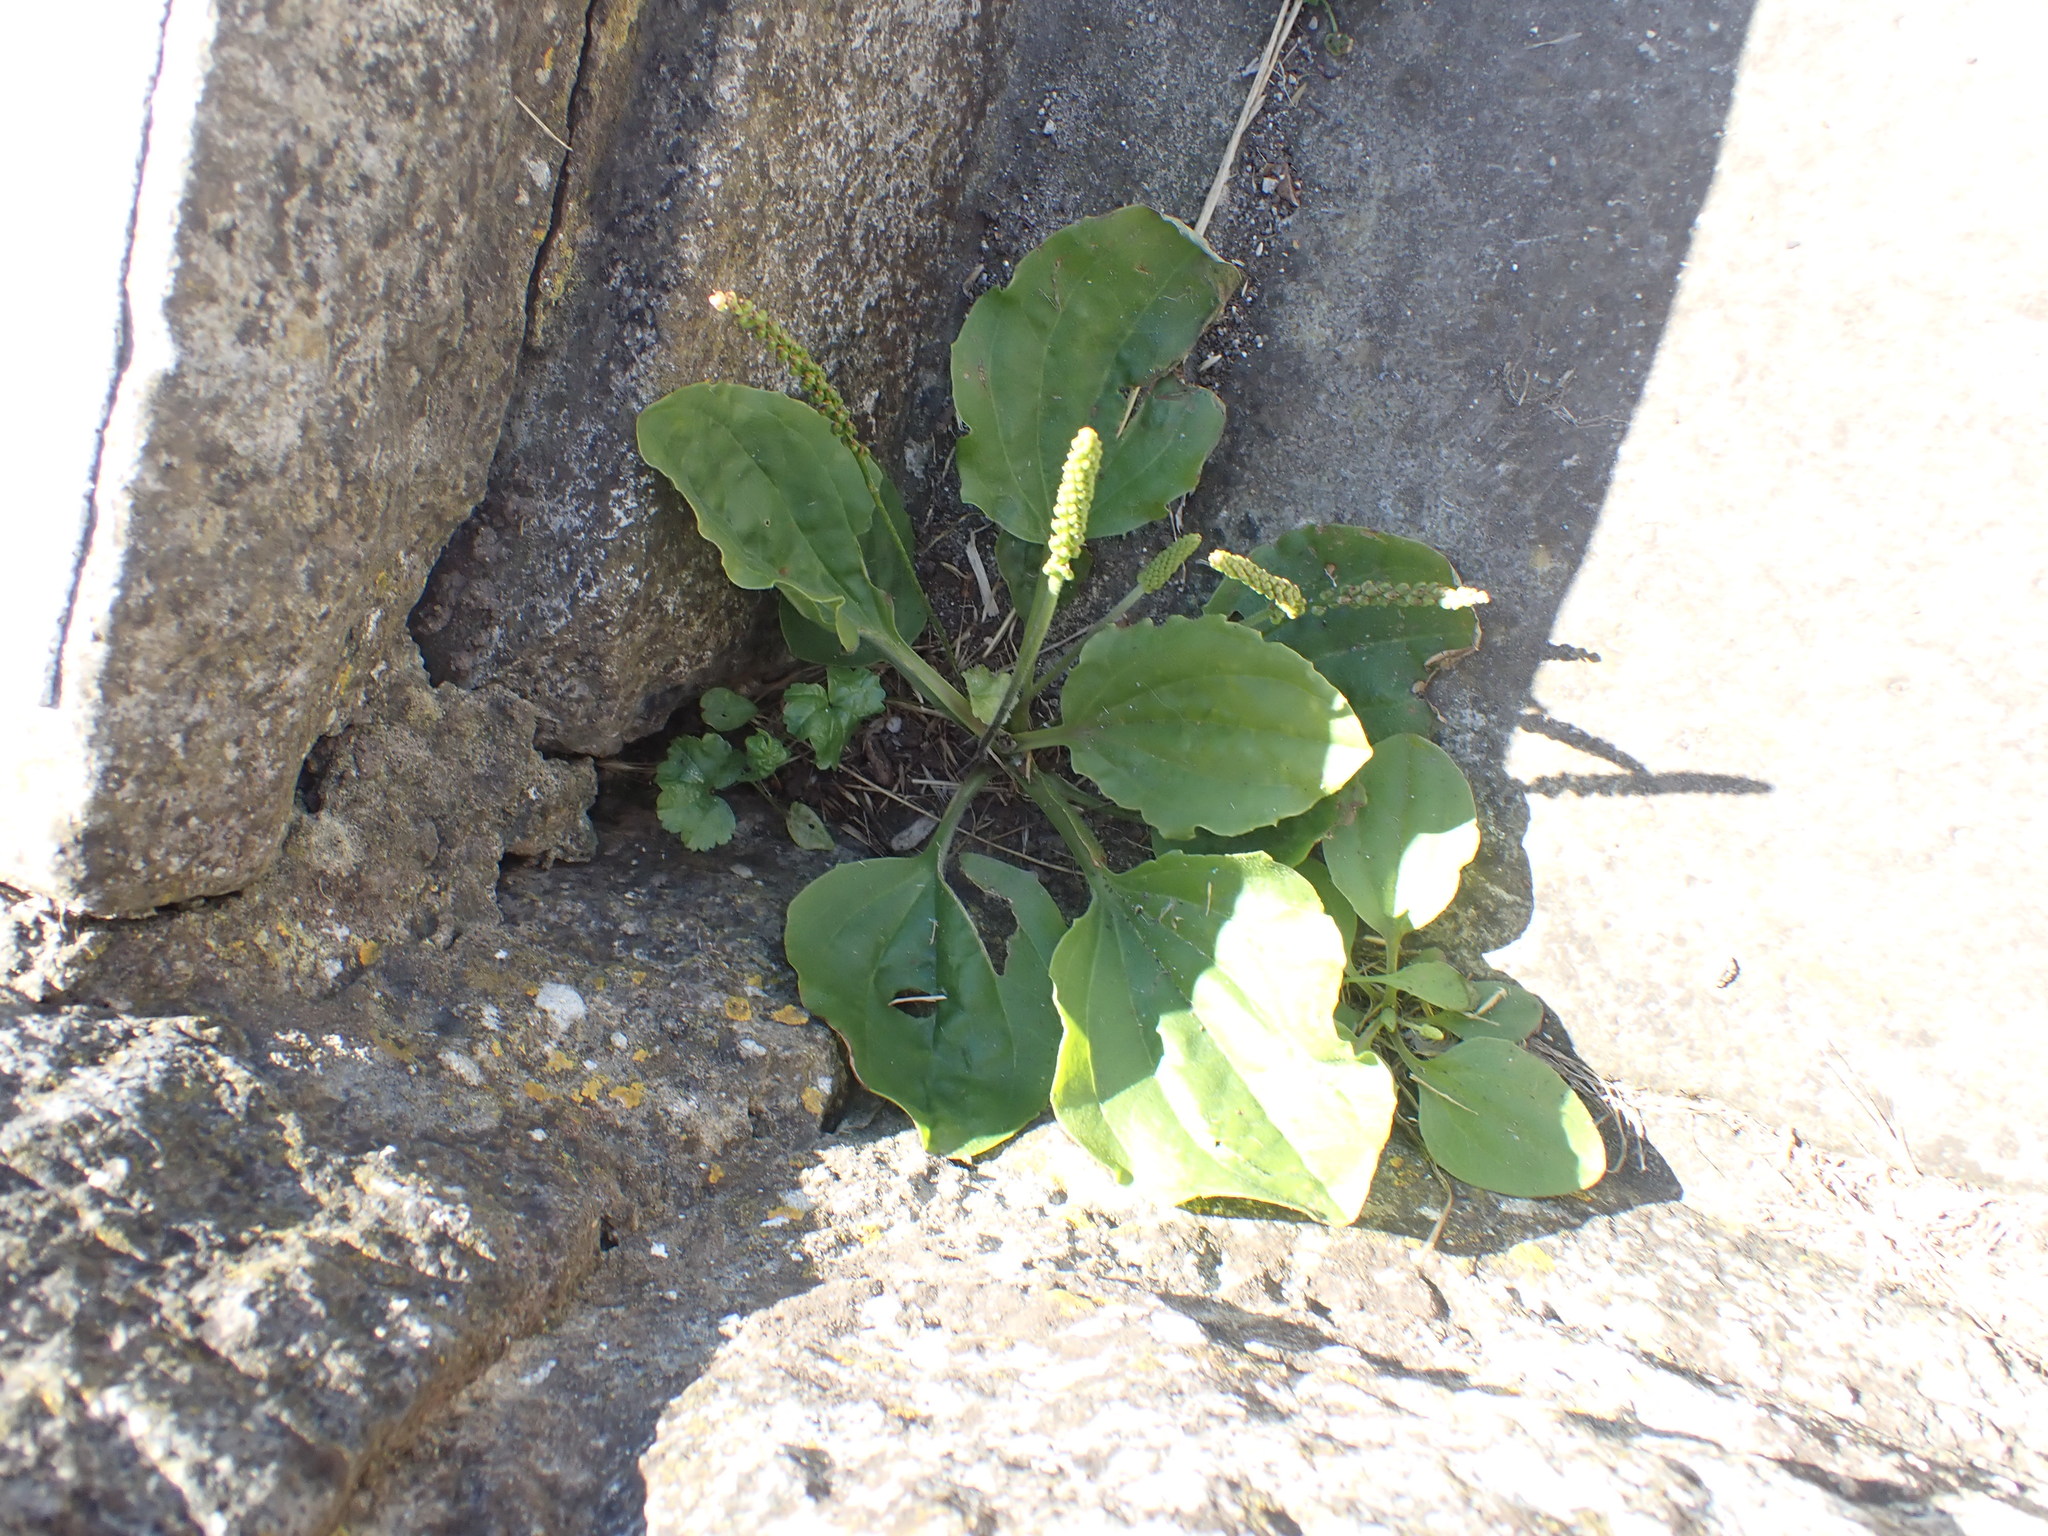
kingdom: Plantae
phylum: Tracheophyta
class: Magnoliopsida
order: Lamiales
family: Plantaginaceae
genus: Plantago
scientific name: Plantago major
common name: Common plantain
